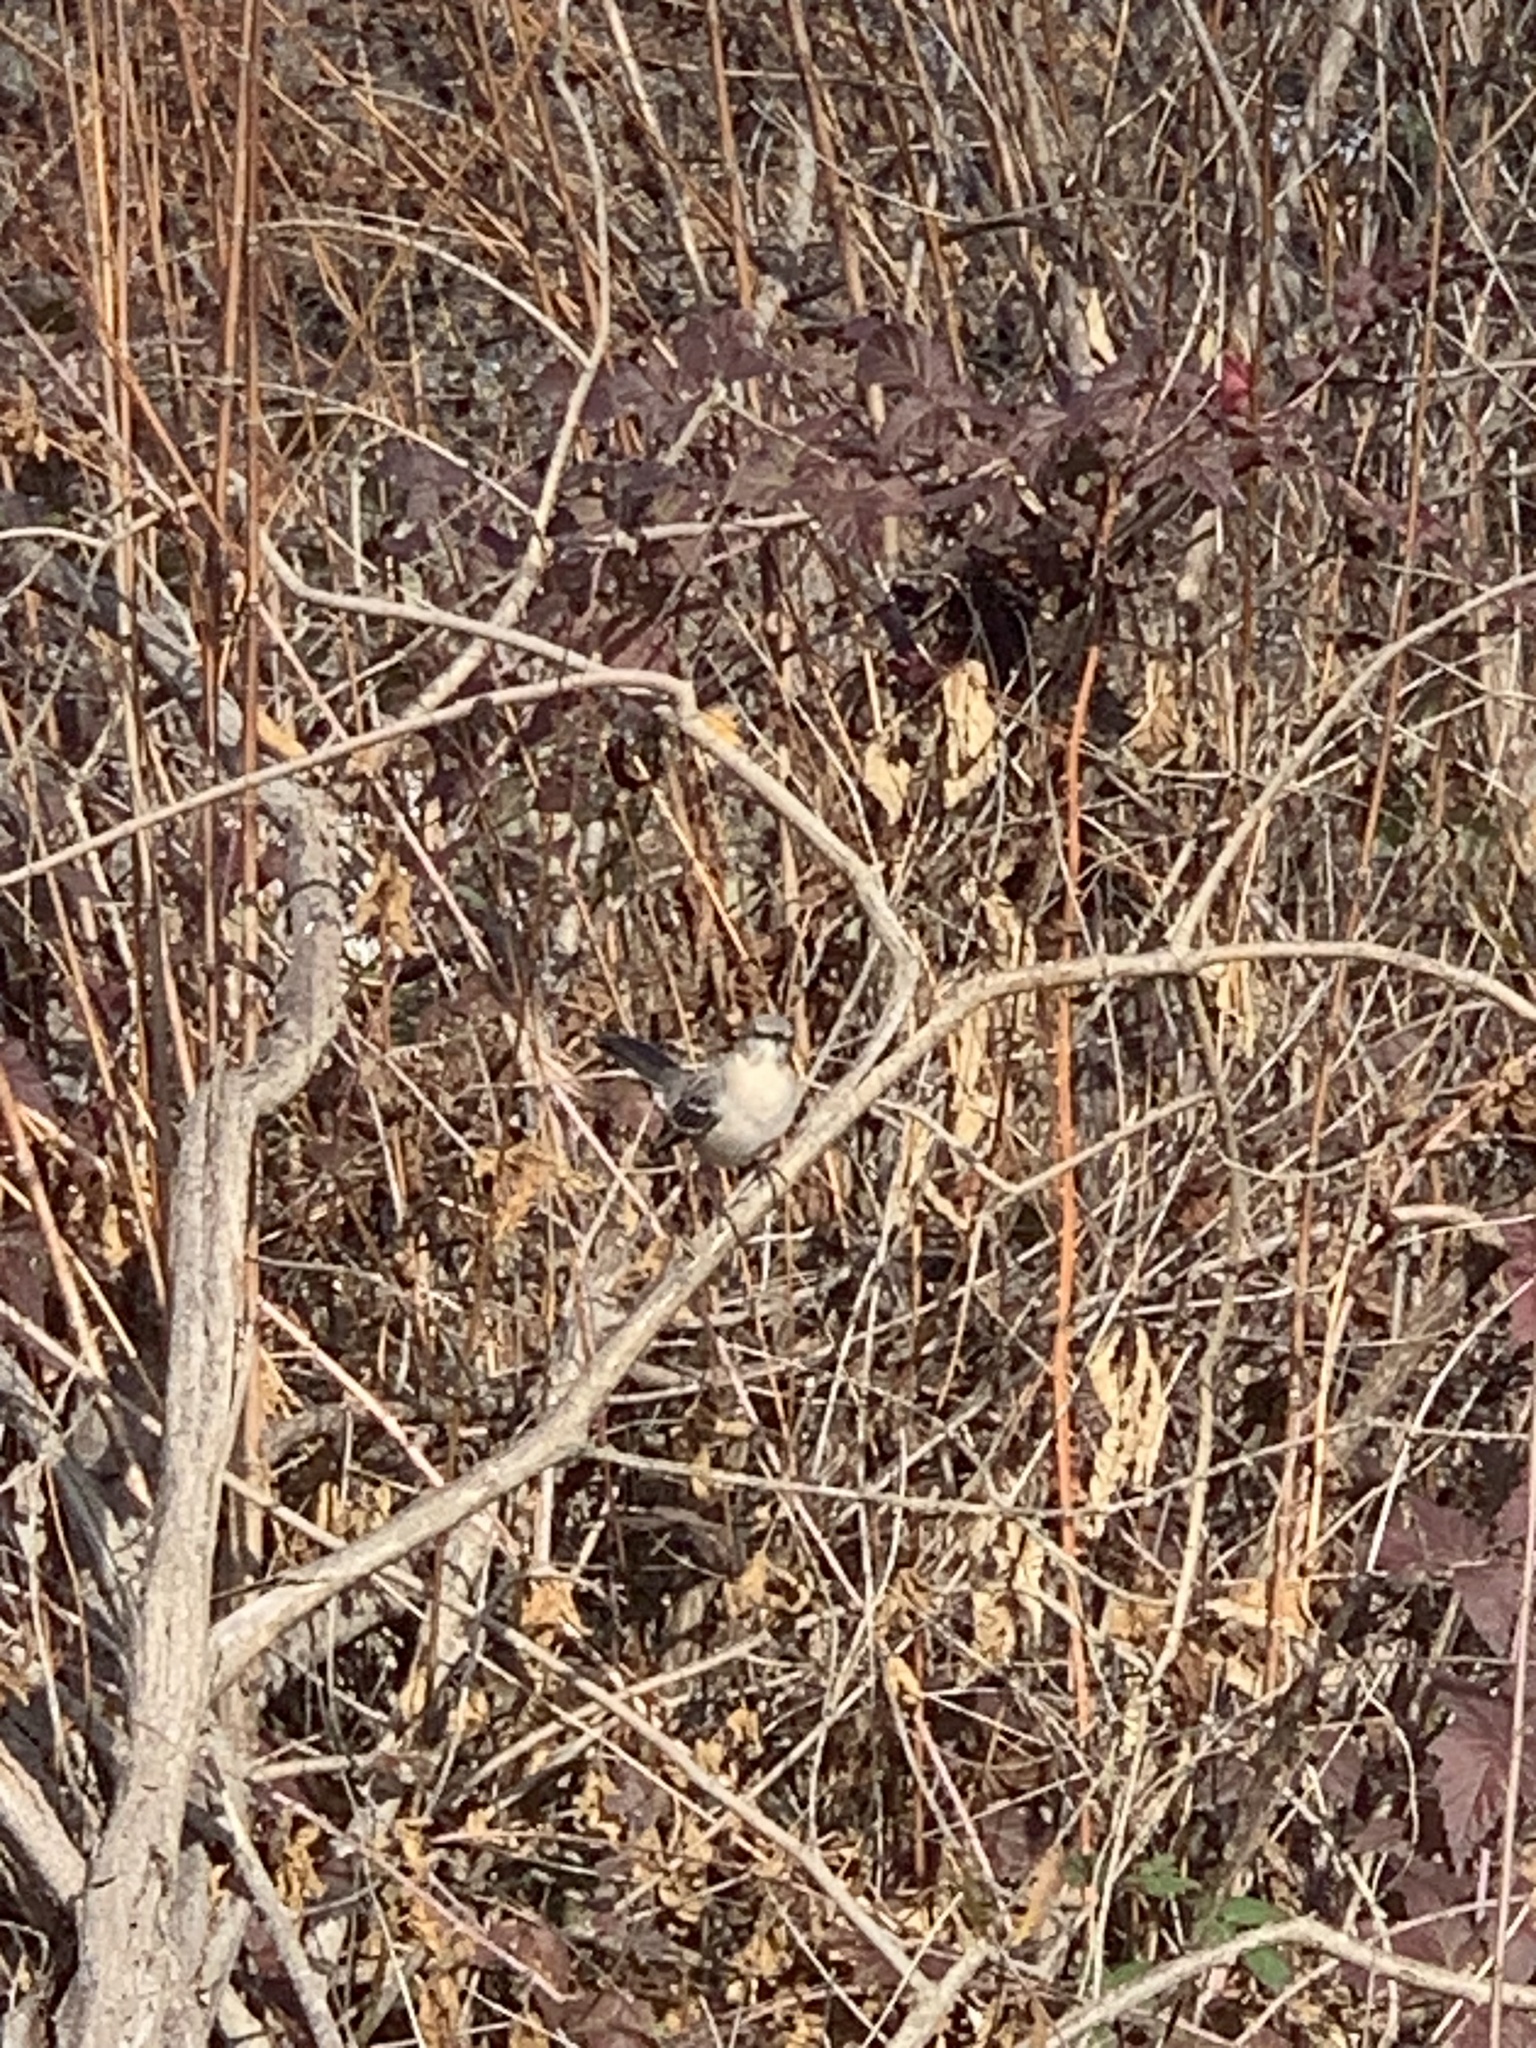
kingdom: Animalia
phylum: Chordata
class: Aves
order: Passeriformes
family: Mimidae
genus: Mimus
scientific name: Mimus polyglottos
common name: Northern mockingbird
